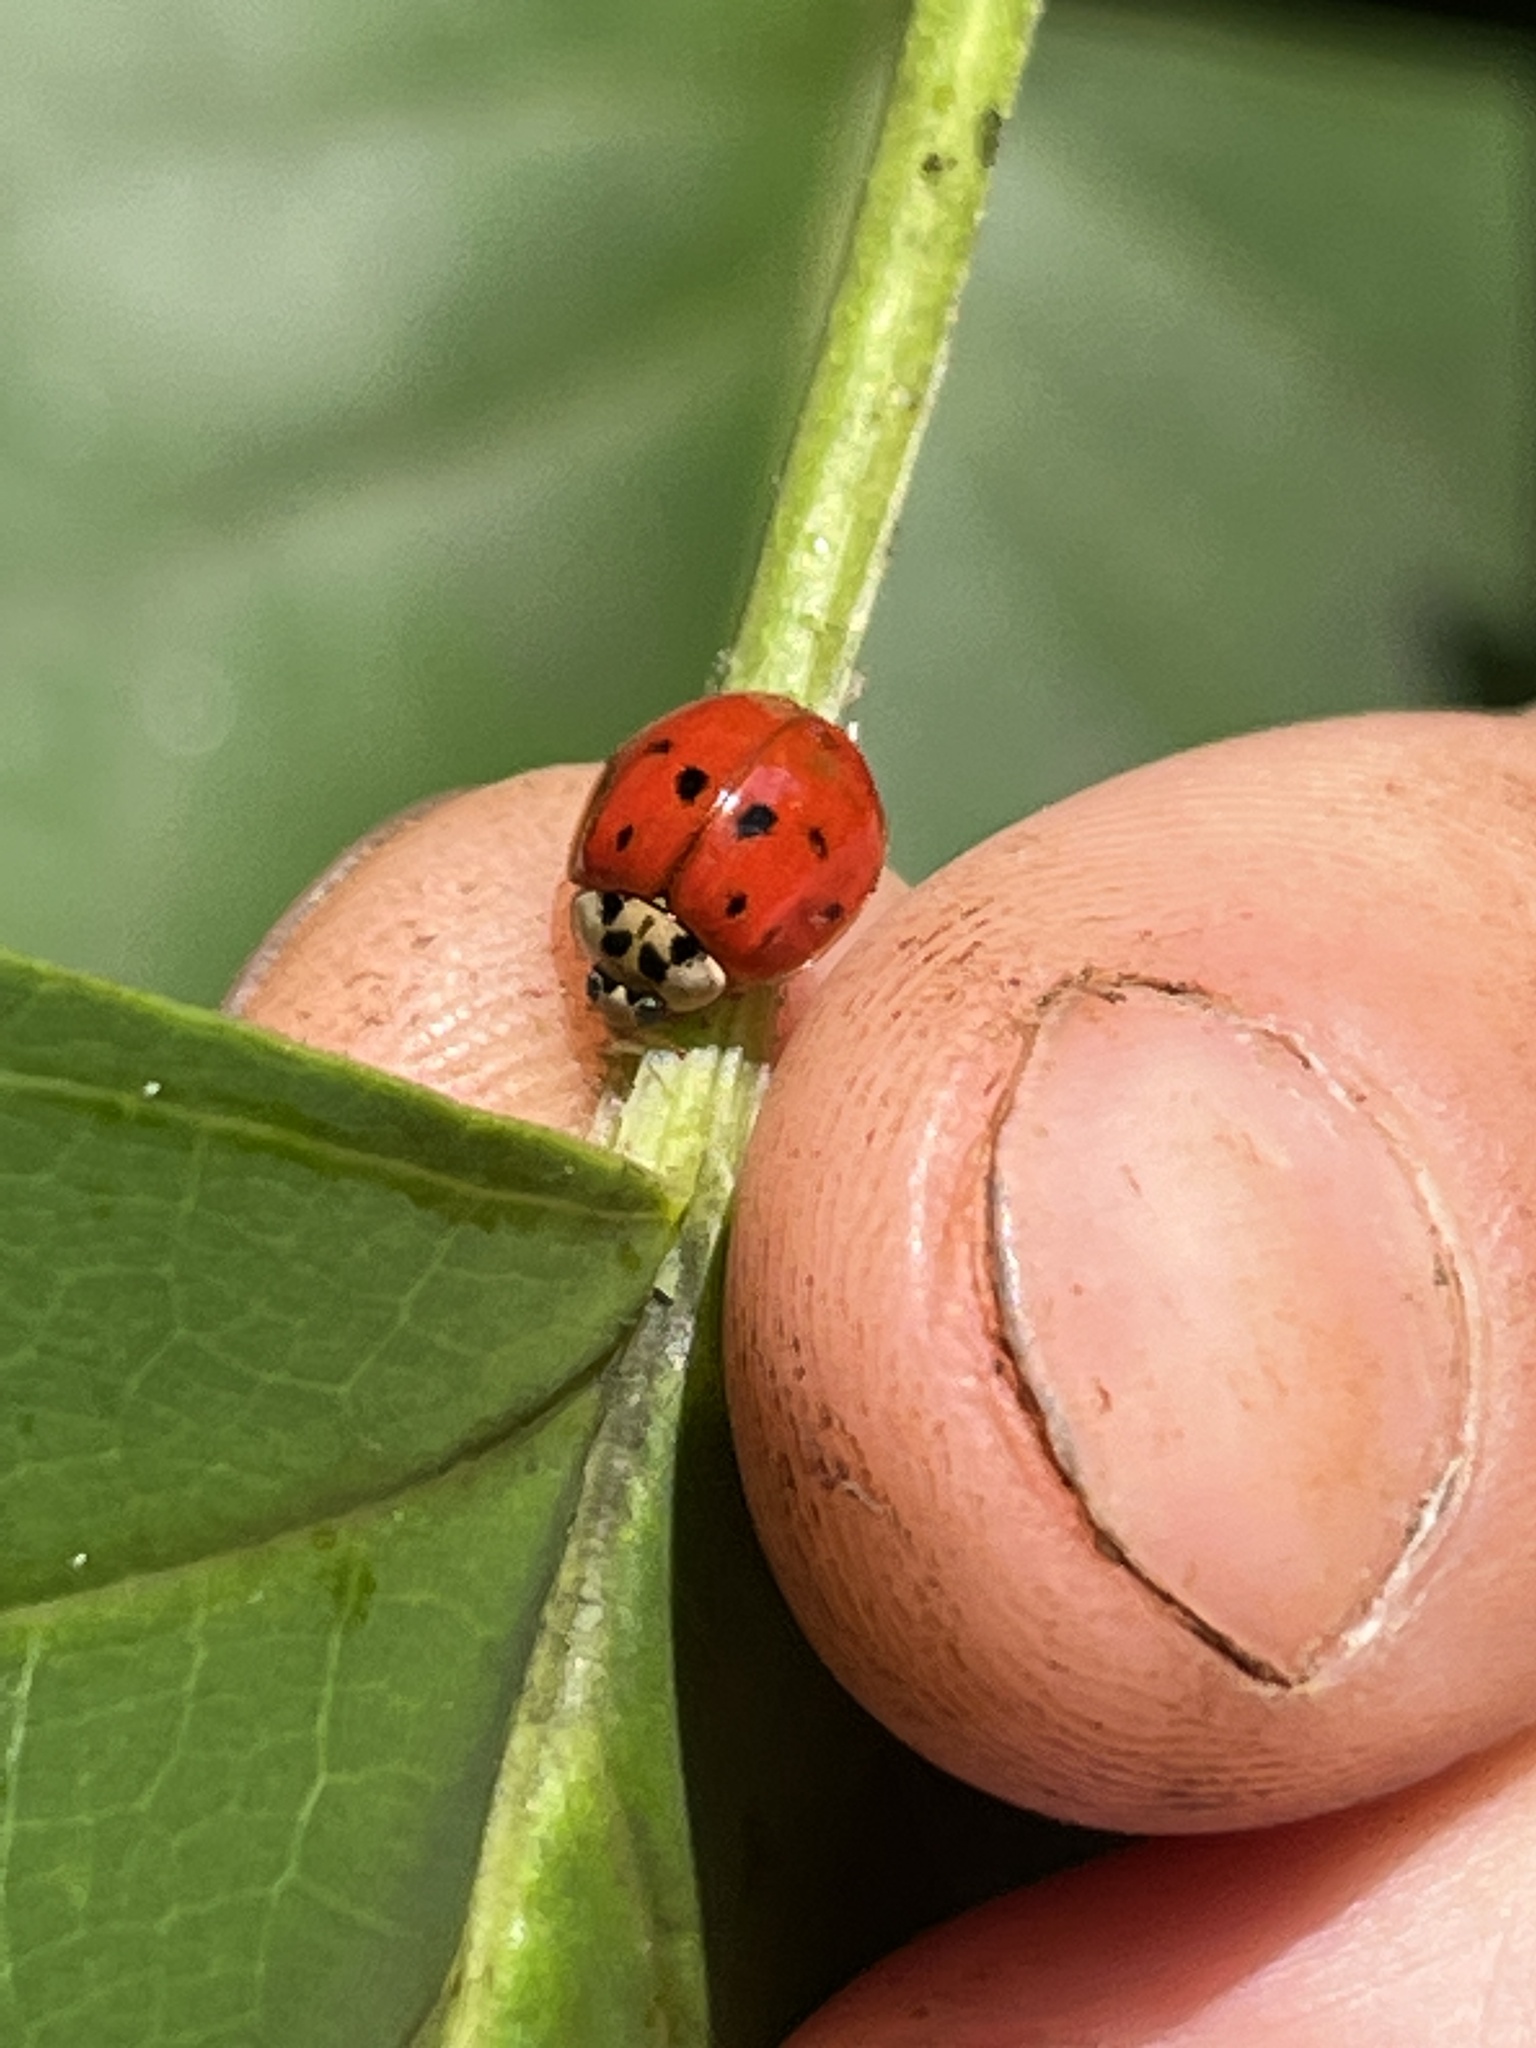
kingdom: Animalia
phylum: Arthropoda
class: Insecta
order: Coleoptera
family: Coccinellidae
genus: Harmonia
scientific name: Harmonia axyridis
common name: Harlequin ladybird
